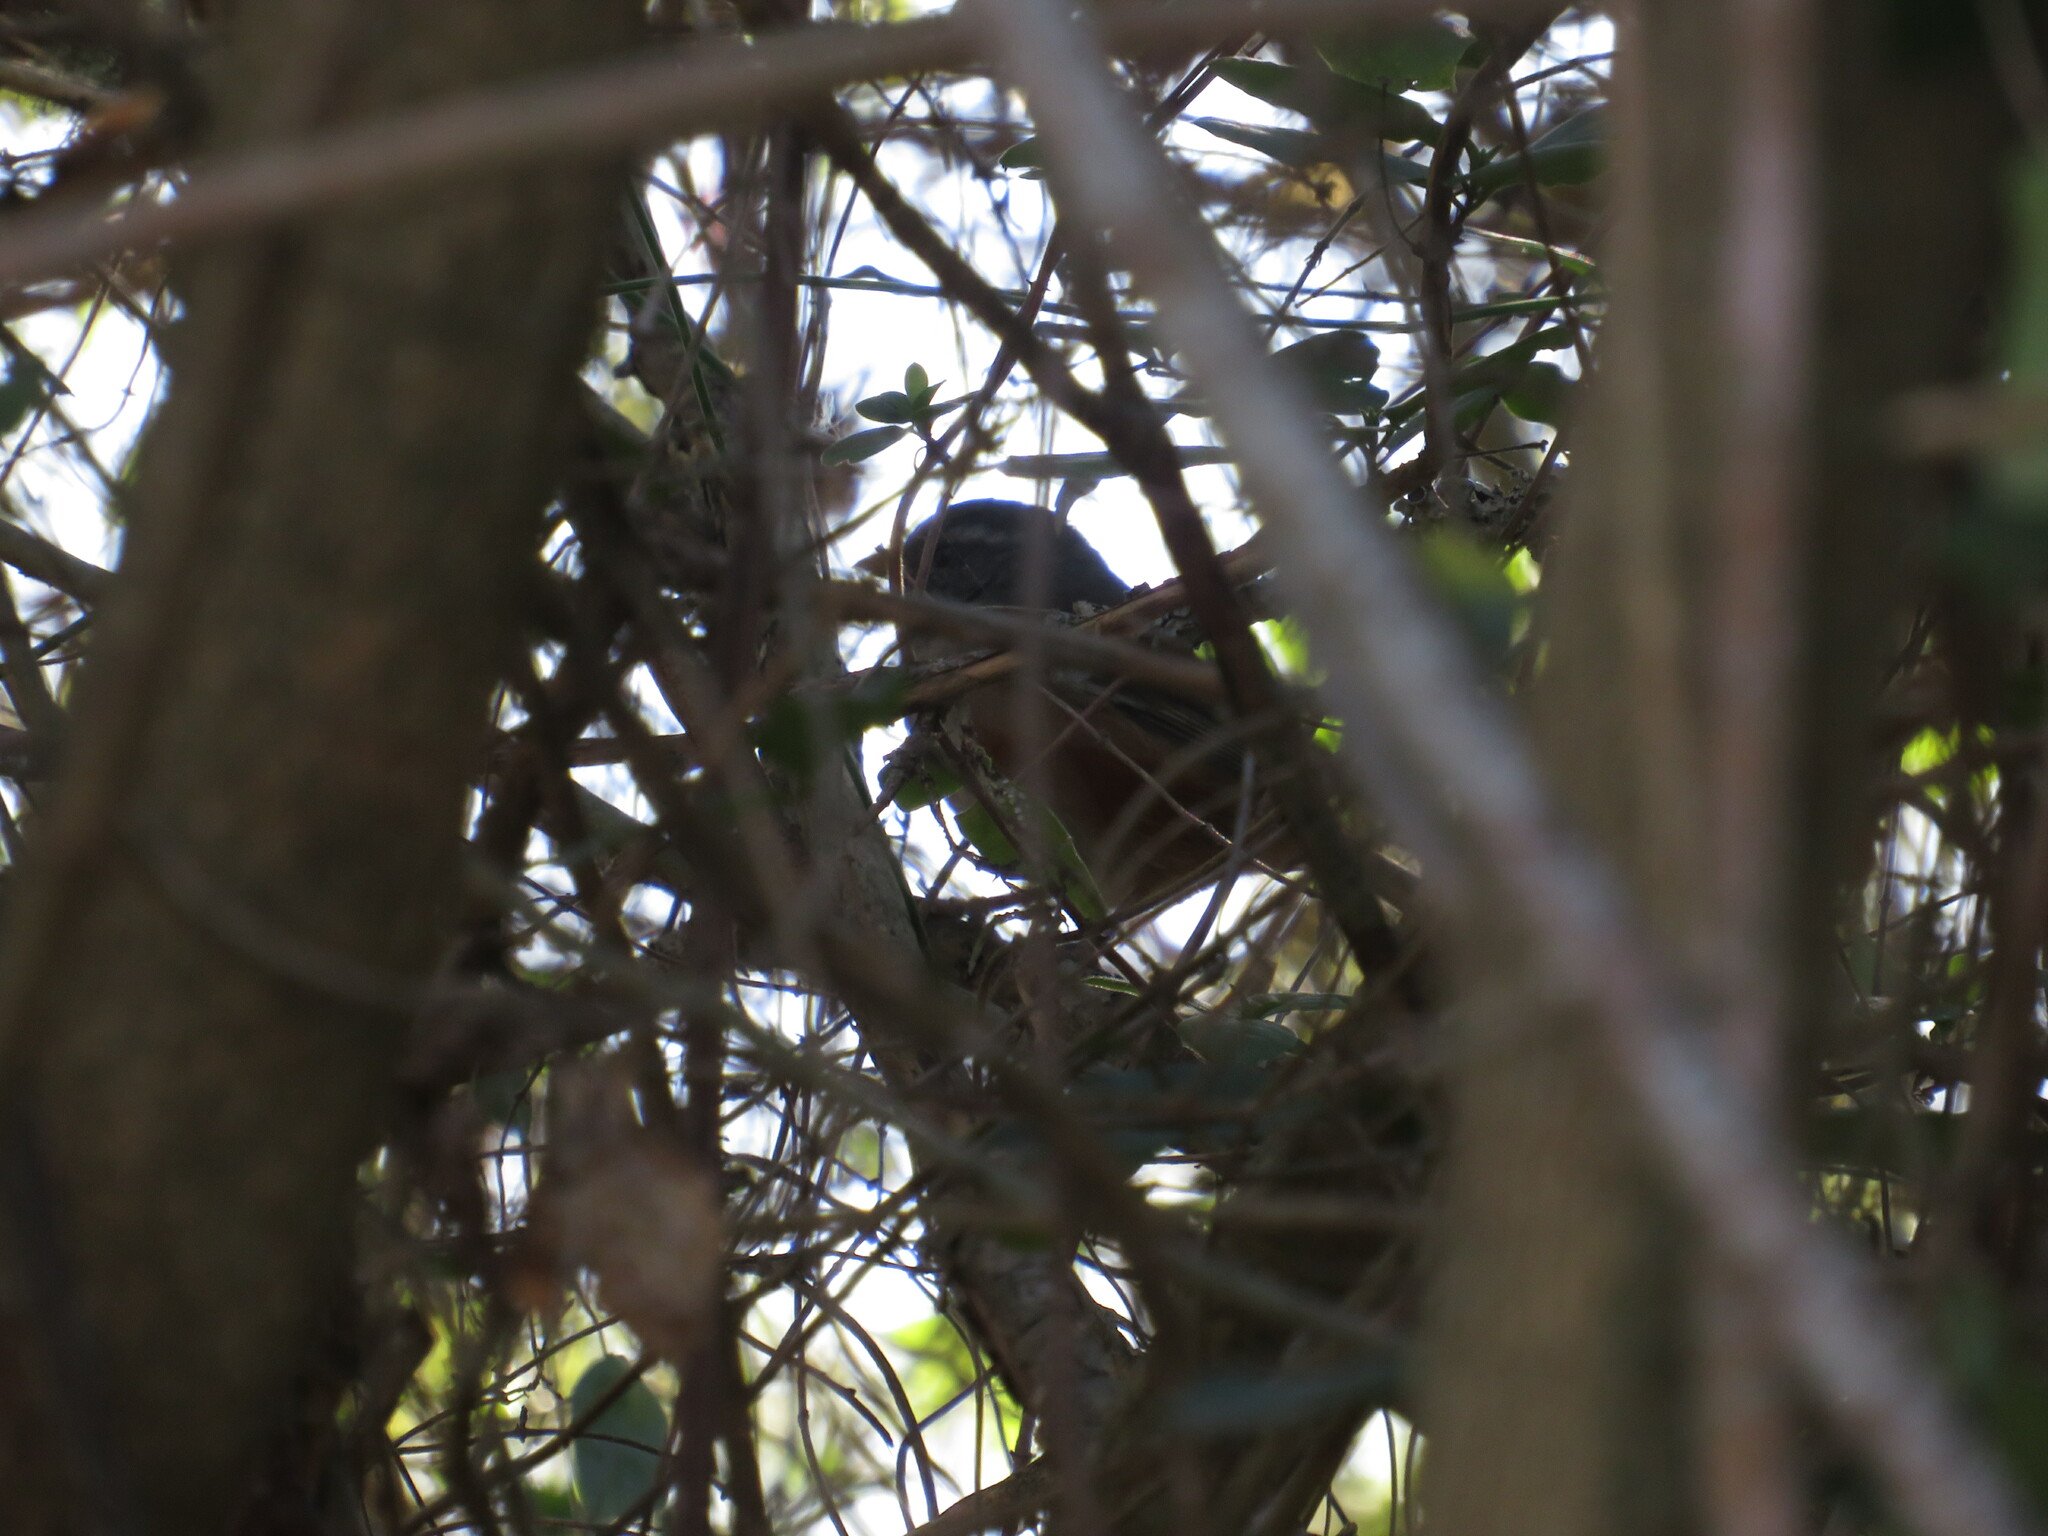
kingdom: Animalia
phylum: Chordata
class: Aves
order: Passeriformes
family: Thraupidae
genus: Poospiza
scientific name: Poospiza nigrorufa
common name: Black-and-rufous warbling finch
